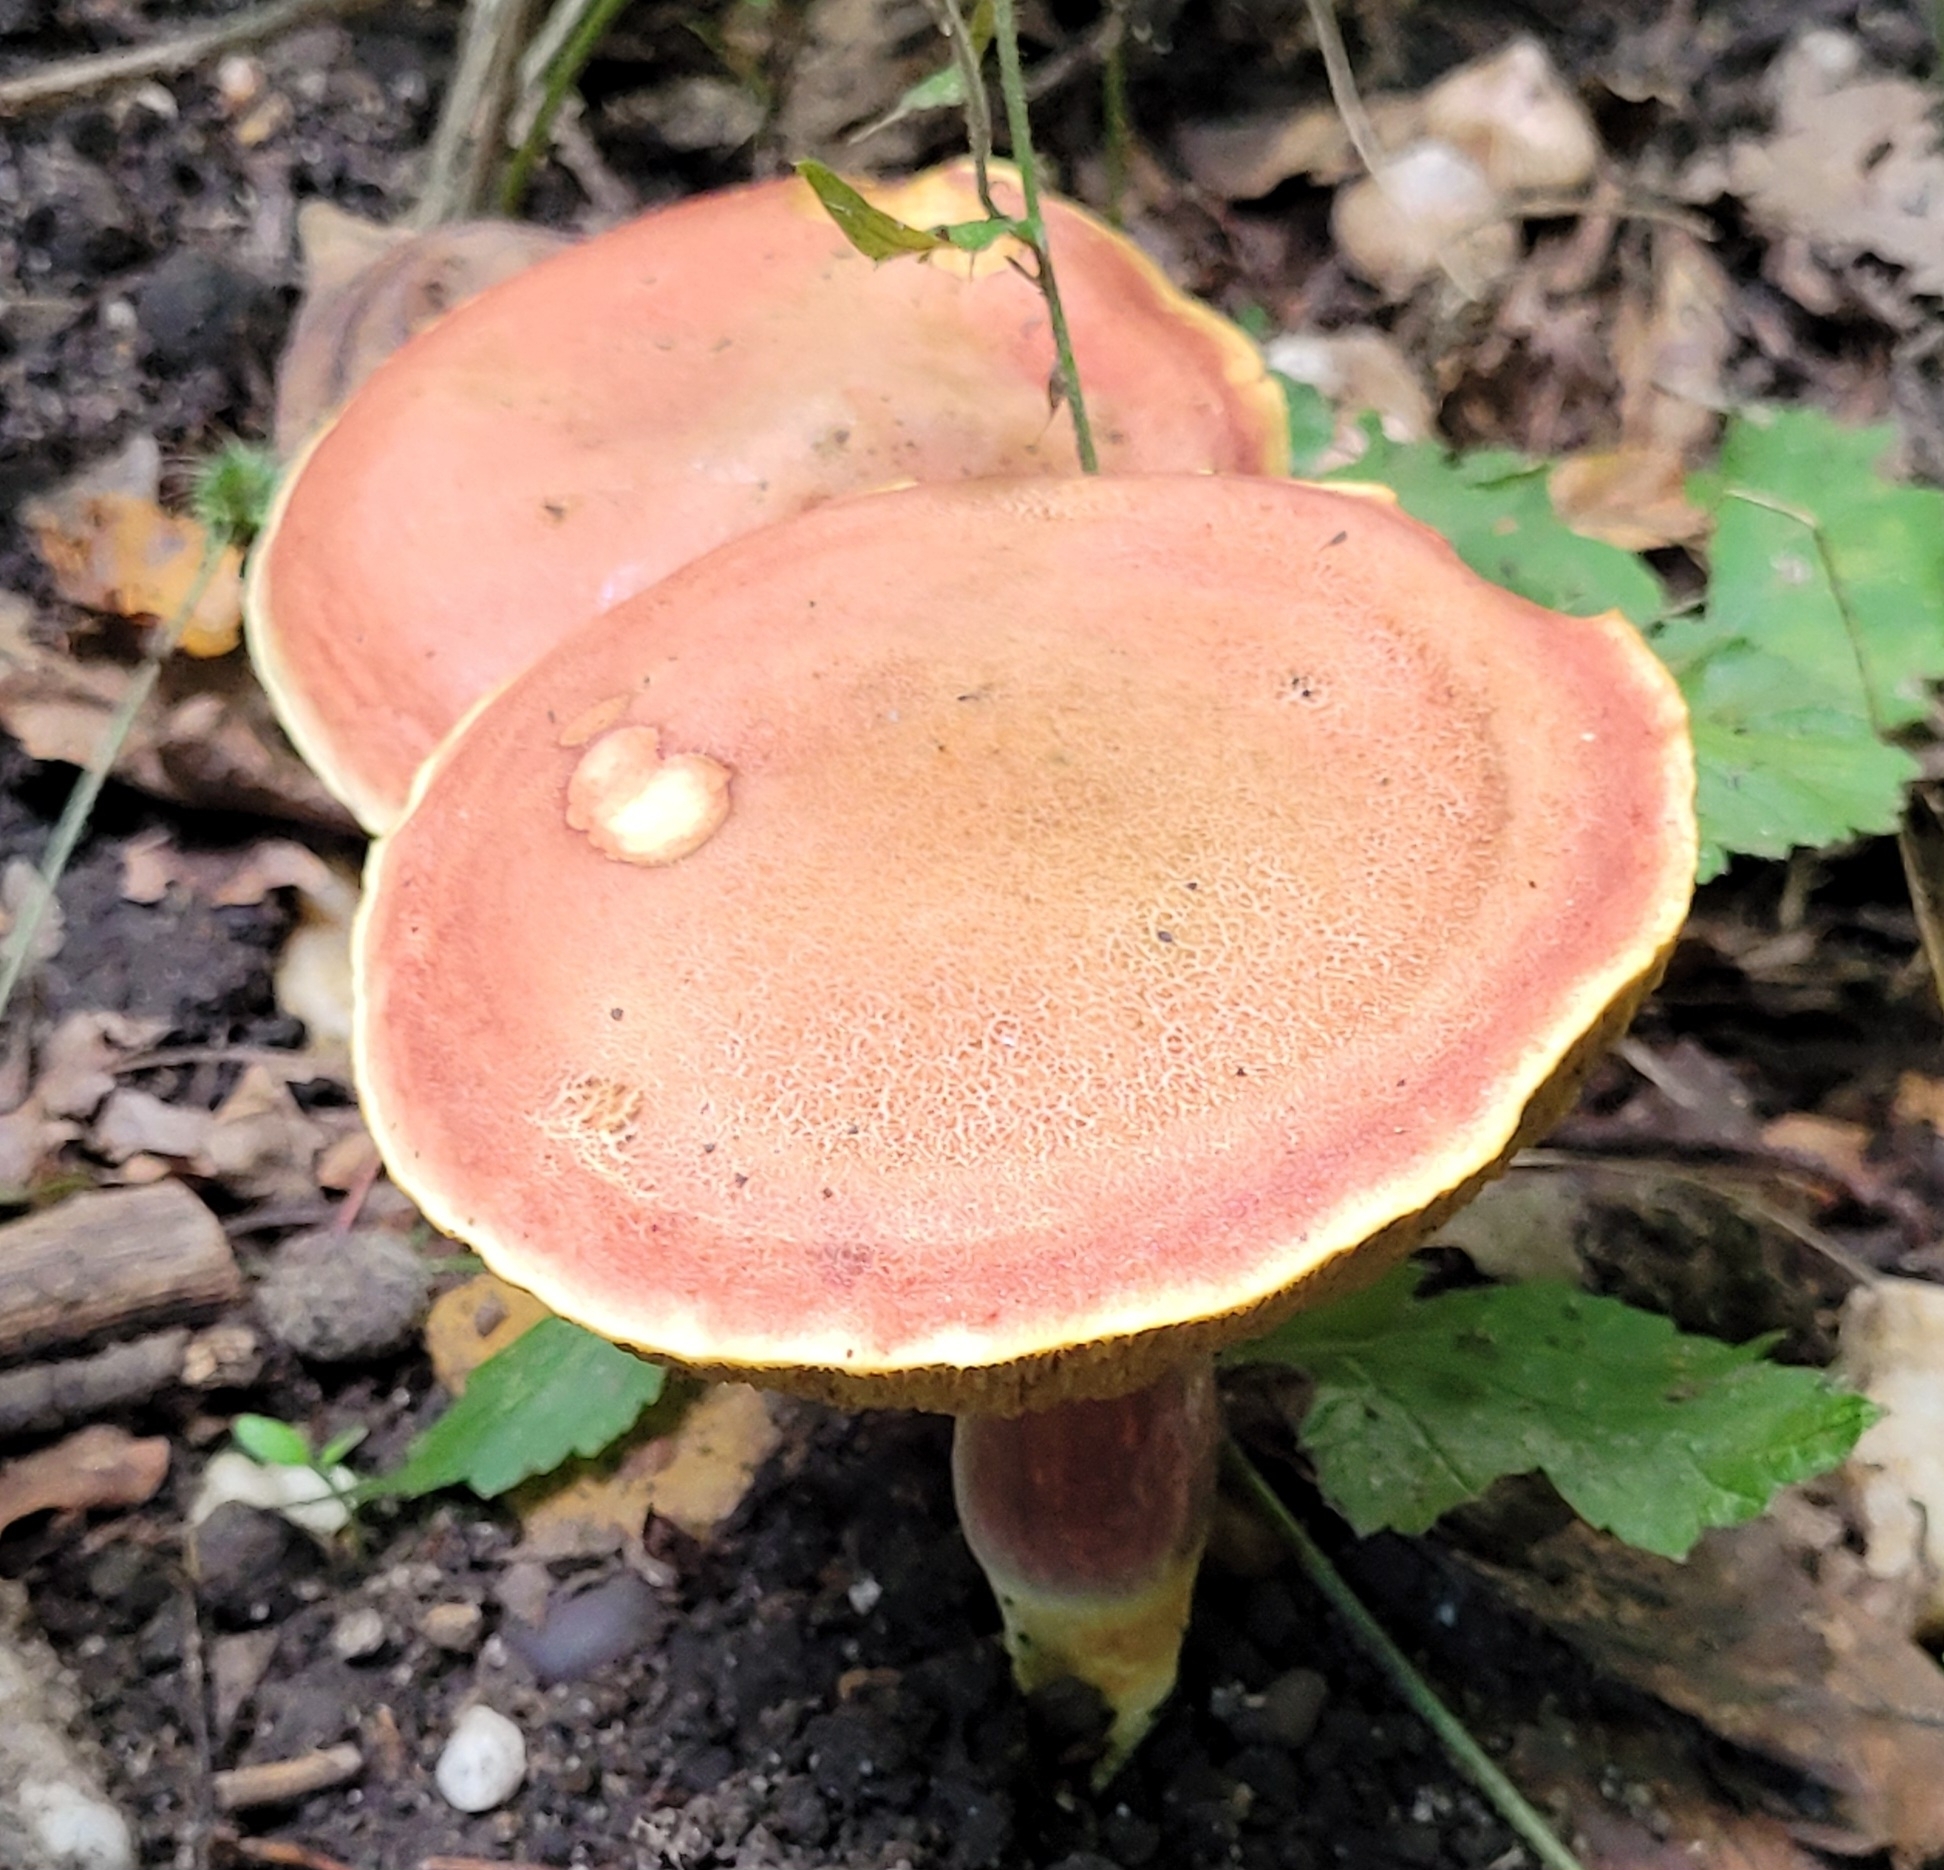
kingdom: Fungi
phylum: Basidiomycota
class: Agaricomycetes
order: Boletales
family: Boletaceae
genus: Hortiboletus
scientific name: Hortiboletus rubellus
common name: Ruby bolete
